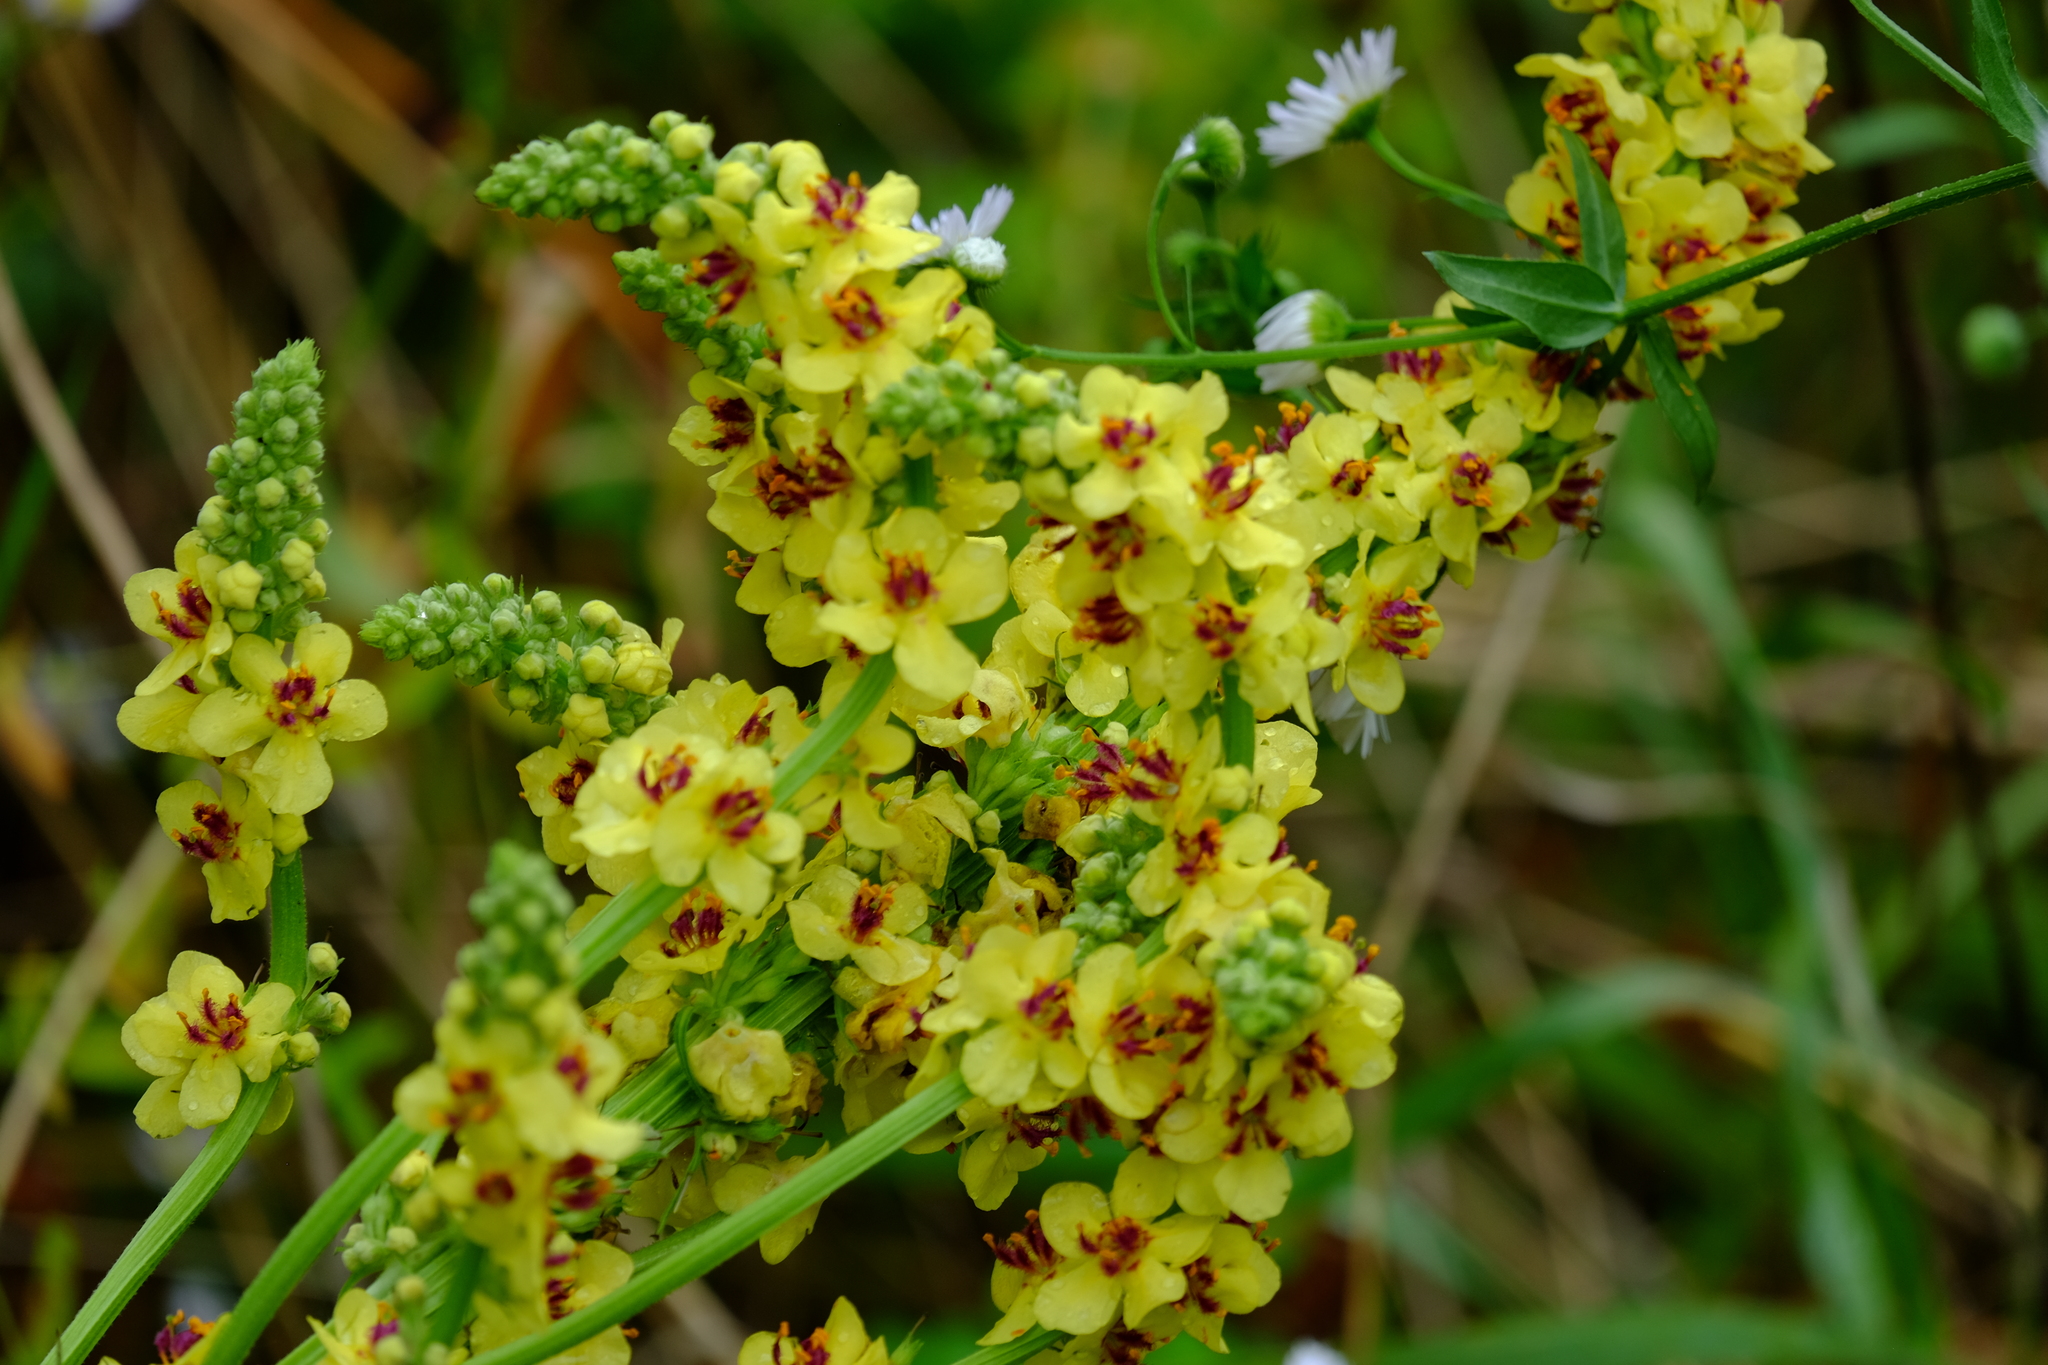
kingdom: Plantae
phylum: Tracheophyta
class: Magnoliopsida
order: Lamiales
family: Scrophulariaceae
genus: Verbascum
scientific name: Verbascum nigrum
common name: Dark mullein
